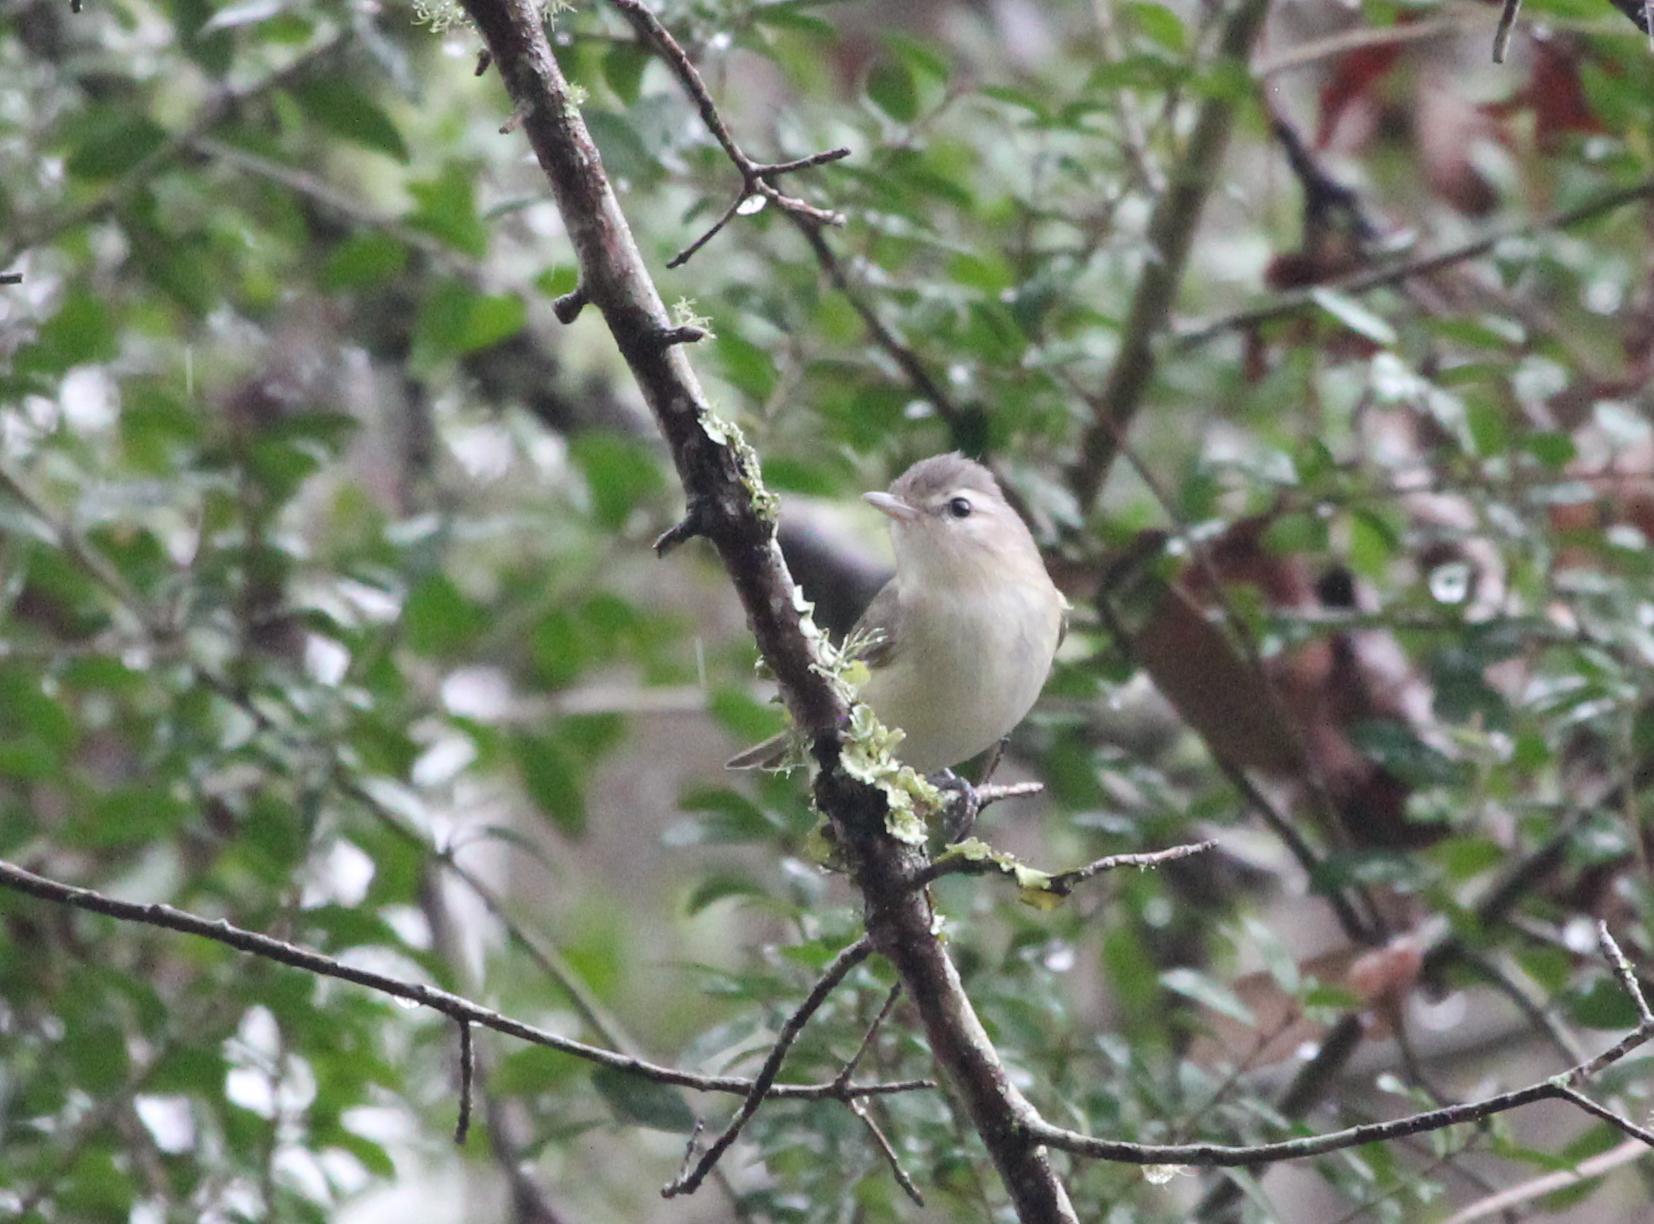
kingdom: Animalia
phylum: Chordata
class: Aves
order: Passeriformes
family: Vireonidae
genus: Vireo
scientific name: Vireo gilvus
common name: Warbling vireo
